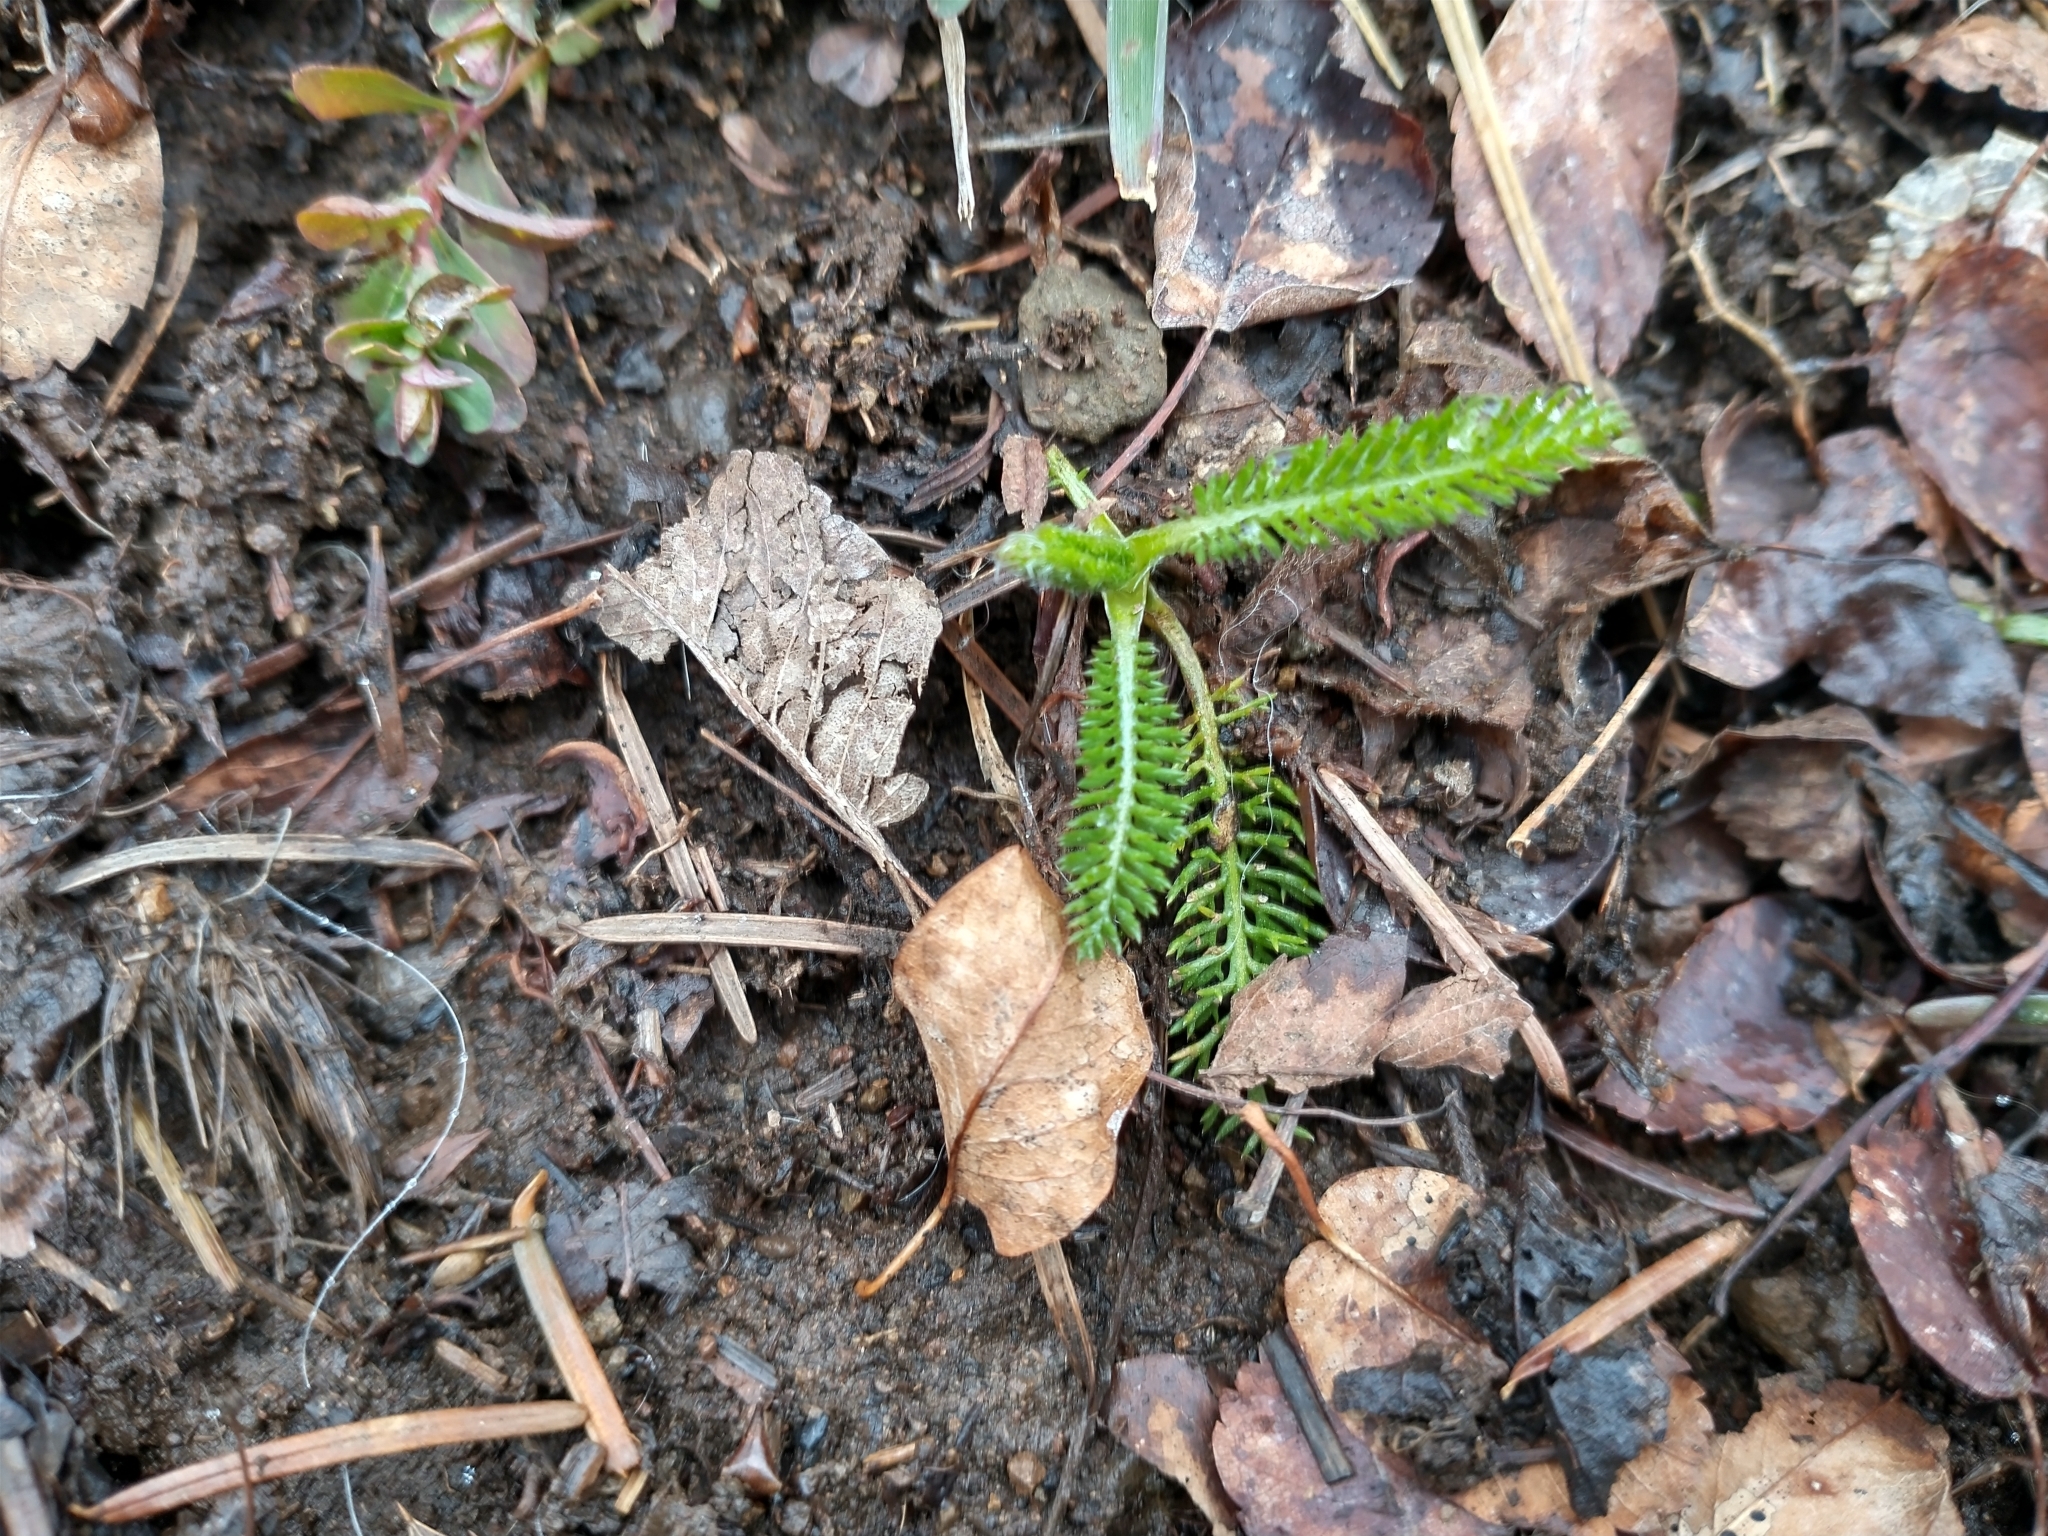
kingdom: Plantae
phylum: Tracheophyta
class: Magnoliopsida
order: Asterales
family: Asteraceae
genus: Achillea
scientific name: Achillea millefolium
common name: Yarrow
